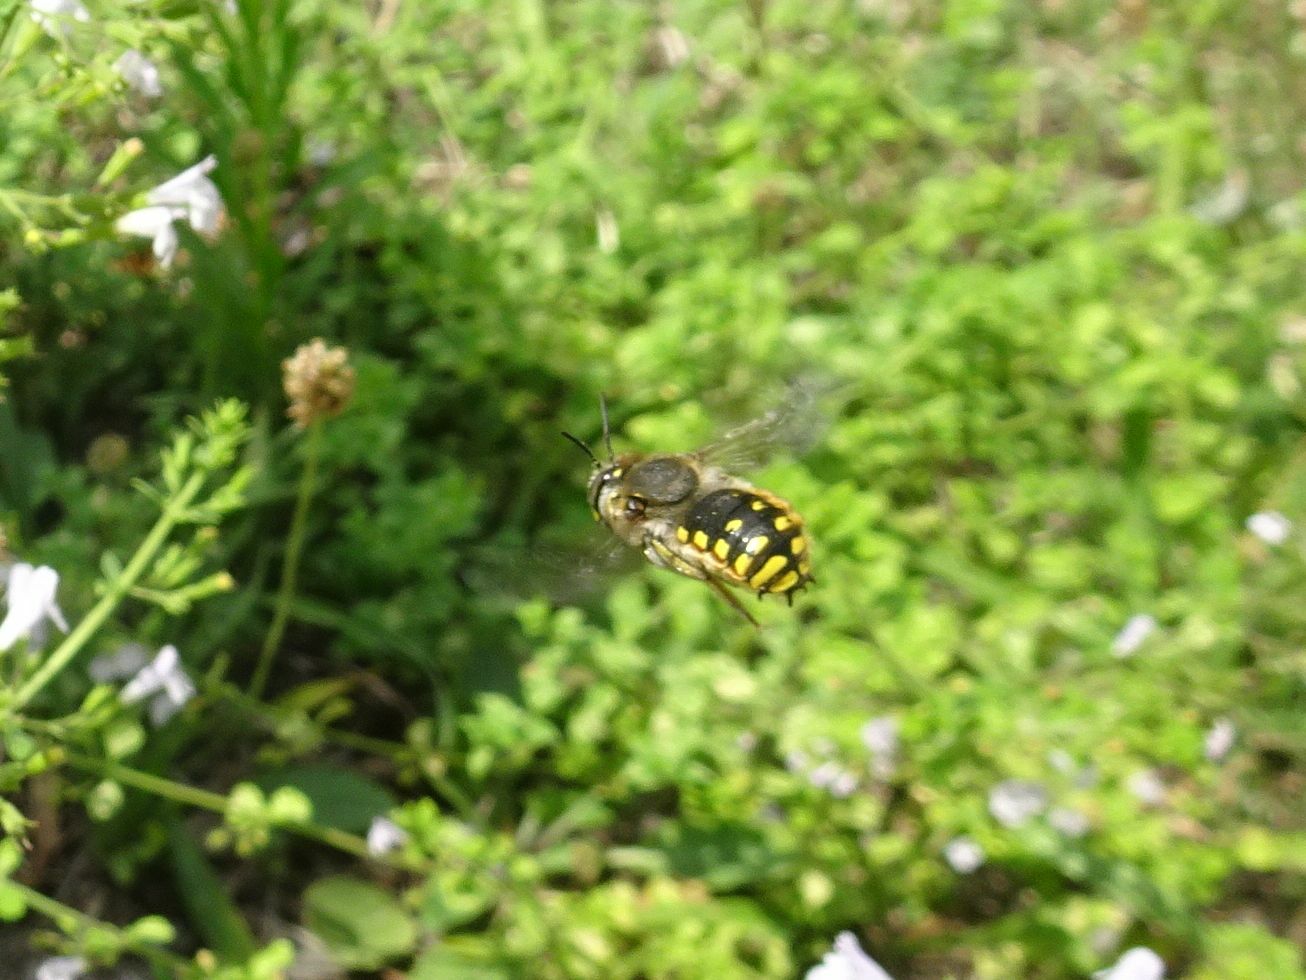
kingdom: Animalia
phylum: Arthropoda
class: Insecta
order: Hymenoptera
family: Megachilidae
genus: Anthidium
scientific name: Anthidium manicatum
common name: Wool carder bee
